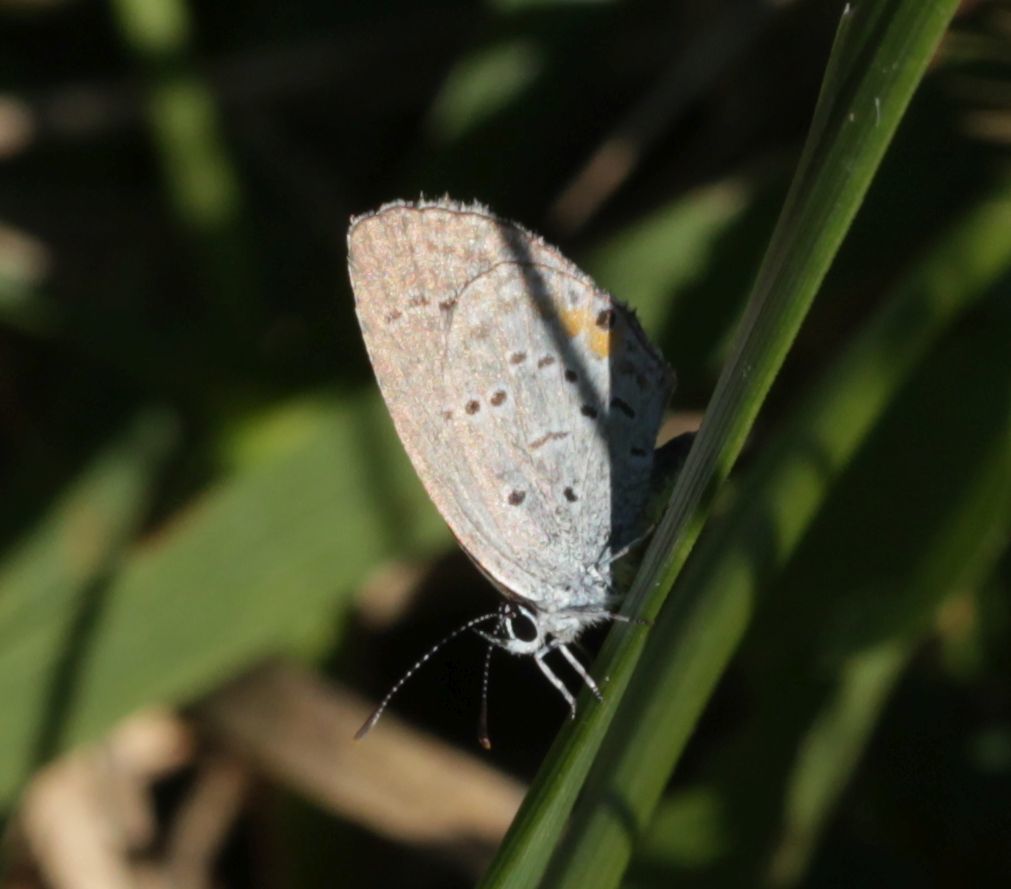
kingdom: Animalia
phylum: Arthropoda
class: Insecta
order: Lepidoptera
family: Lycaenidae
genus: Elkalyce
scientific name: Elkalyce comyntas
